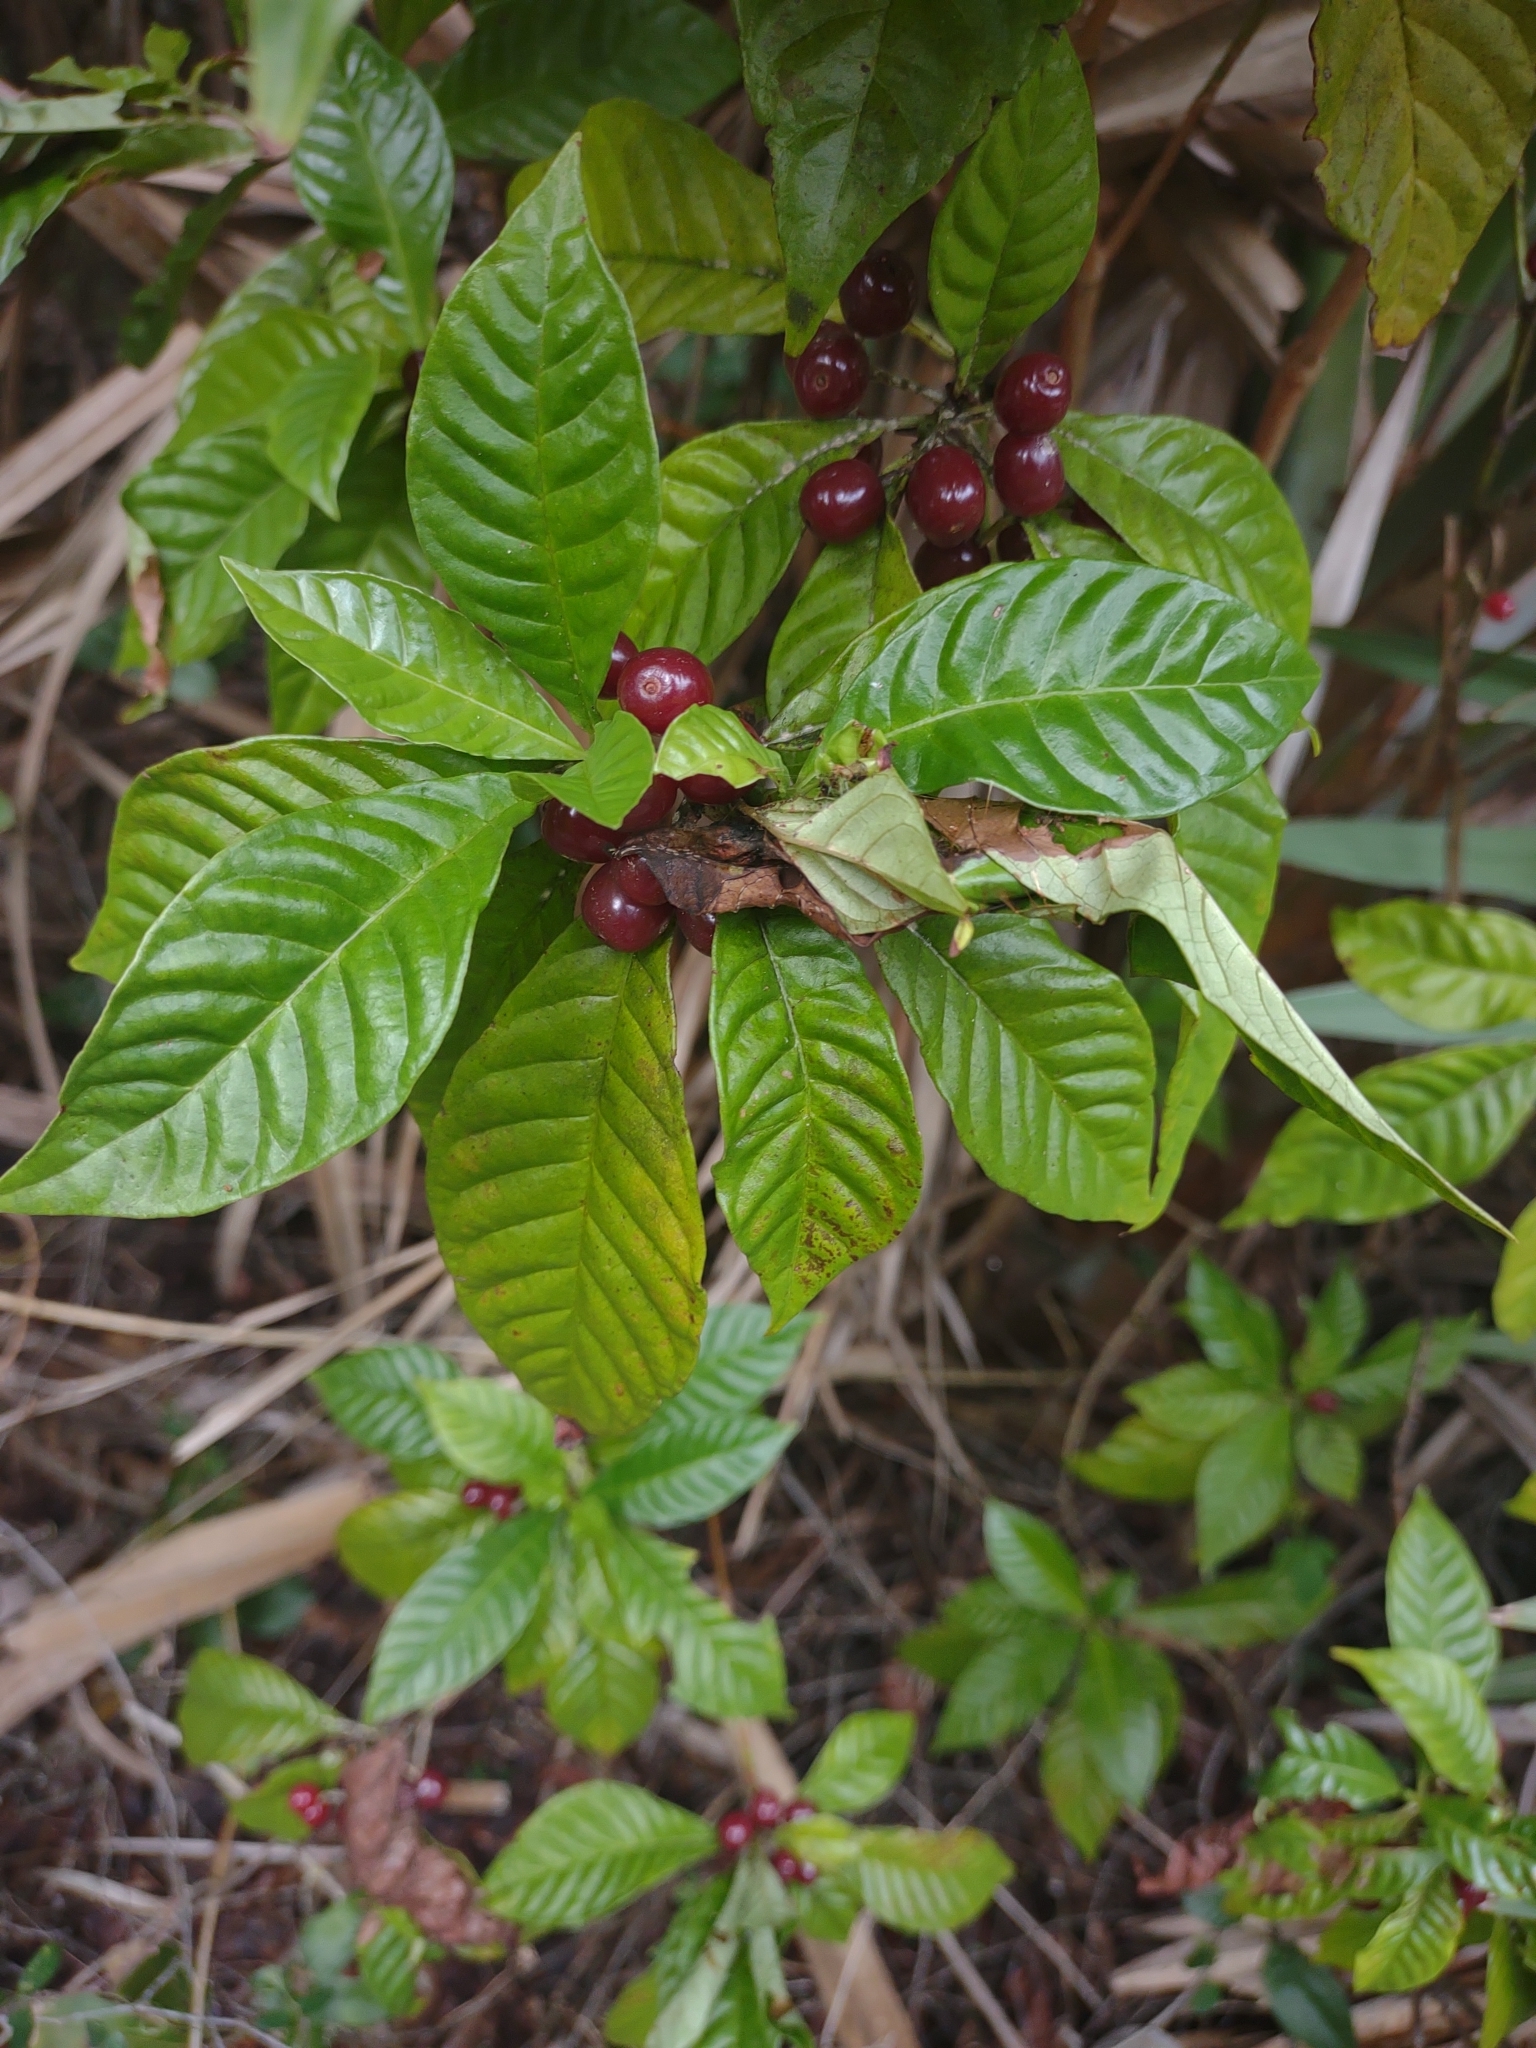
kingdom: Plantae
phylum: Tracheophyta
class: Magnoliopsida
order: Gentianales
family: Rubiaceae
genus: Psychotria
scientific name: Psychotria nervosa
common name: Bastard cankerberry
